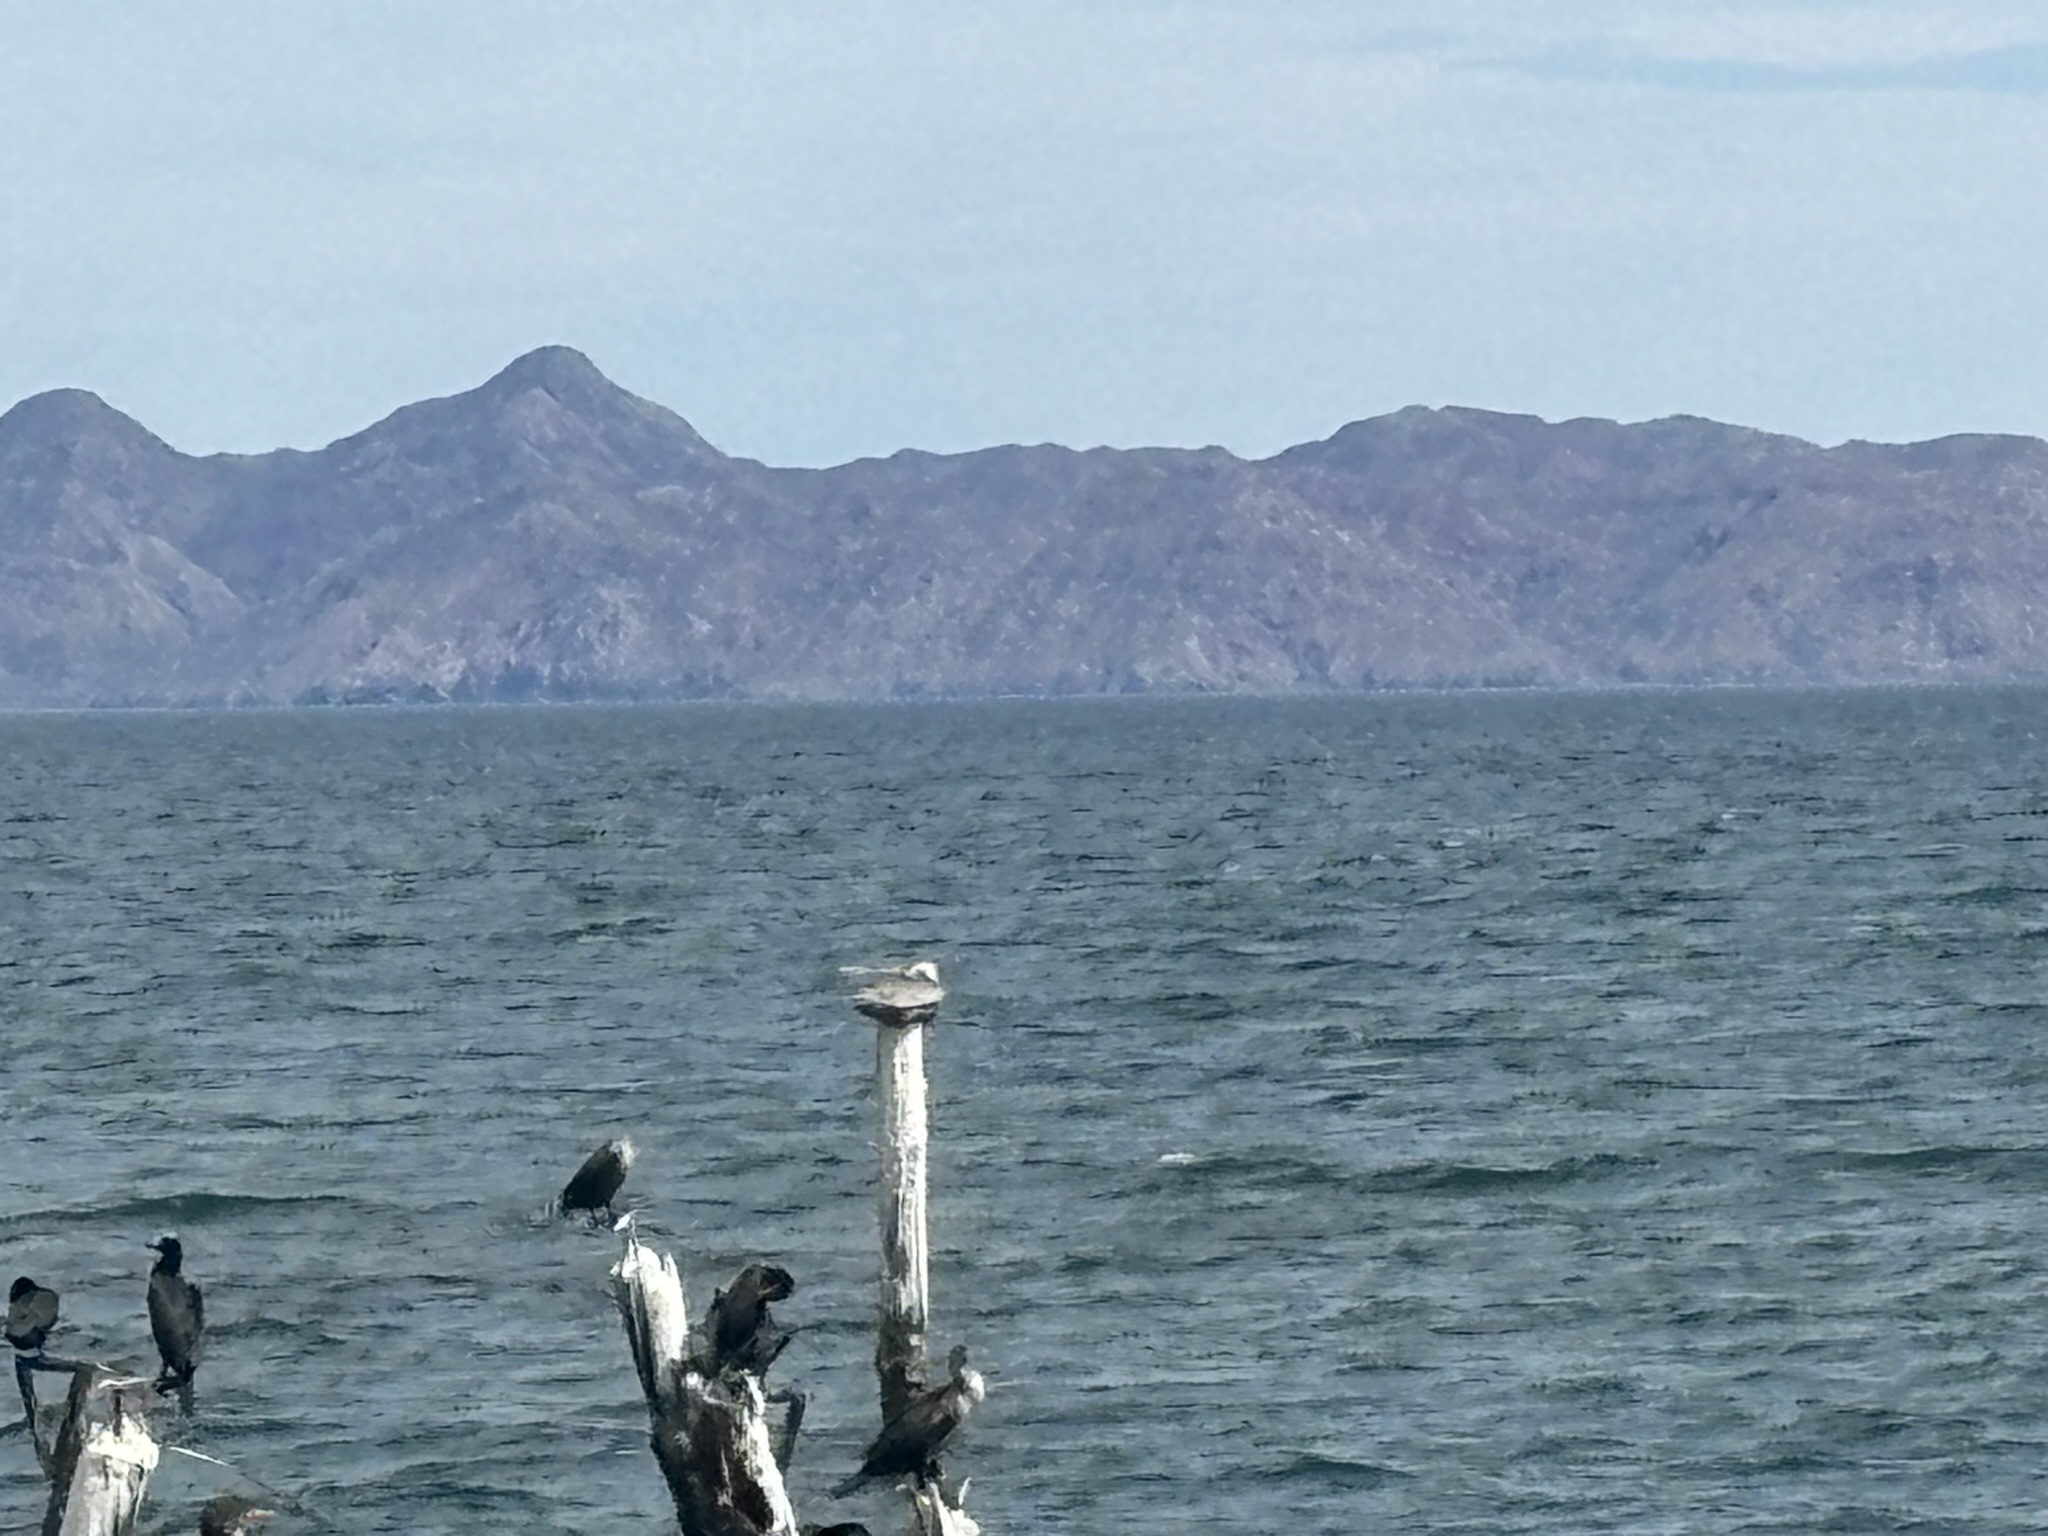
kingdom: Animalia
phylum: Chordata
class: Aves
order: Pelecaniformes
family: Pelecanidae
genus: Pelecanus
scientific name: Pelecanus occidentalis
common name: Brown pelican
